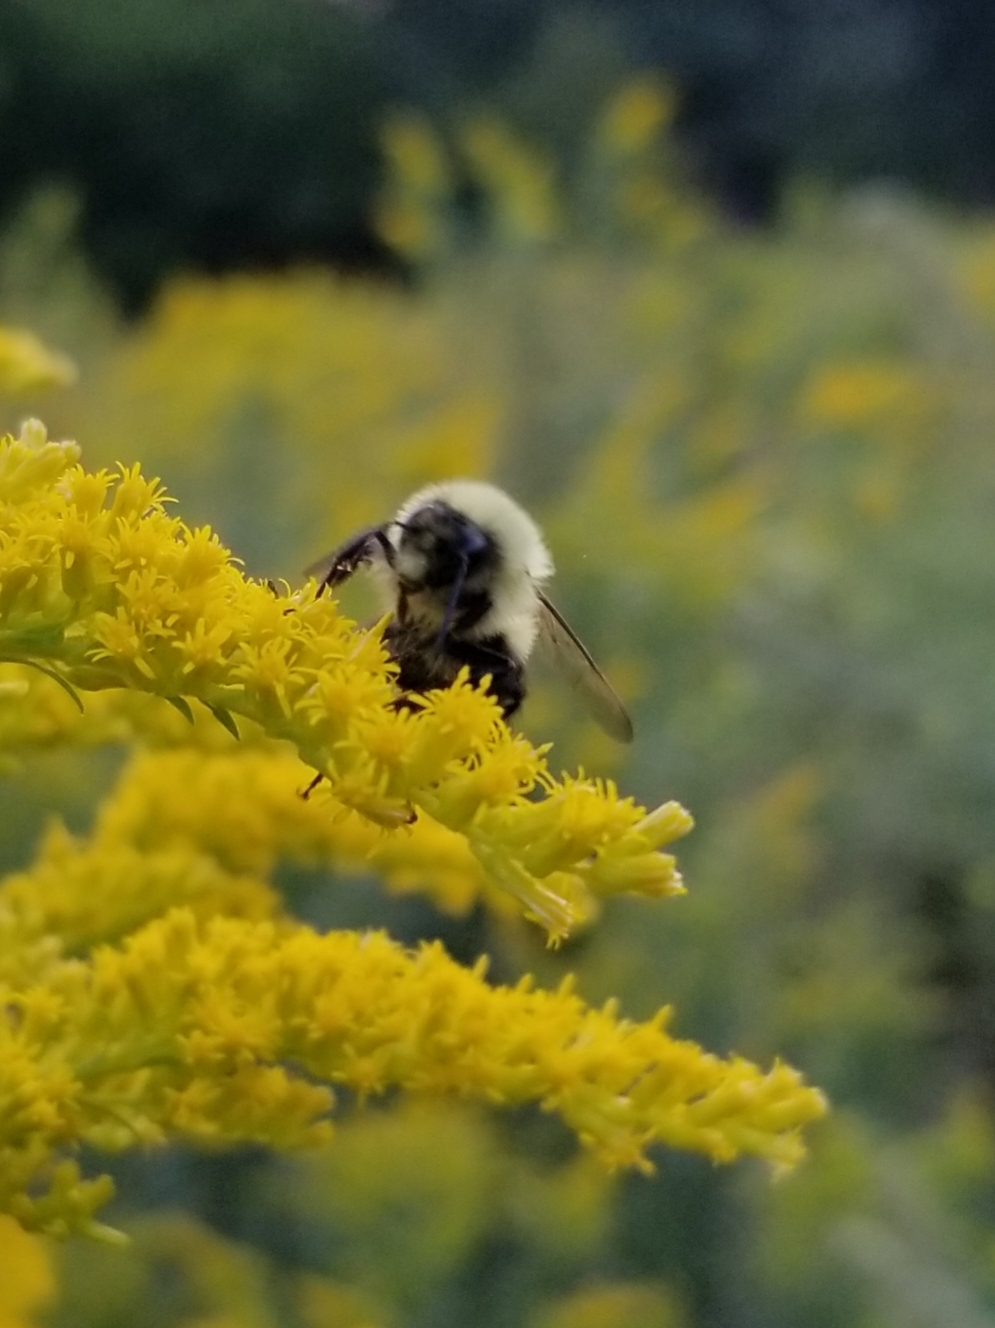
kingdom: Animalia
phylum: Arthropoda
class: Insecta
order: Hymenoptera
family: Apidae
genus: Bombus
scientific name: Bombus impatiens
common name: Common eastern bumble bee
